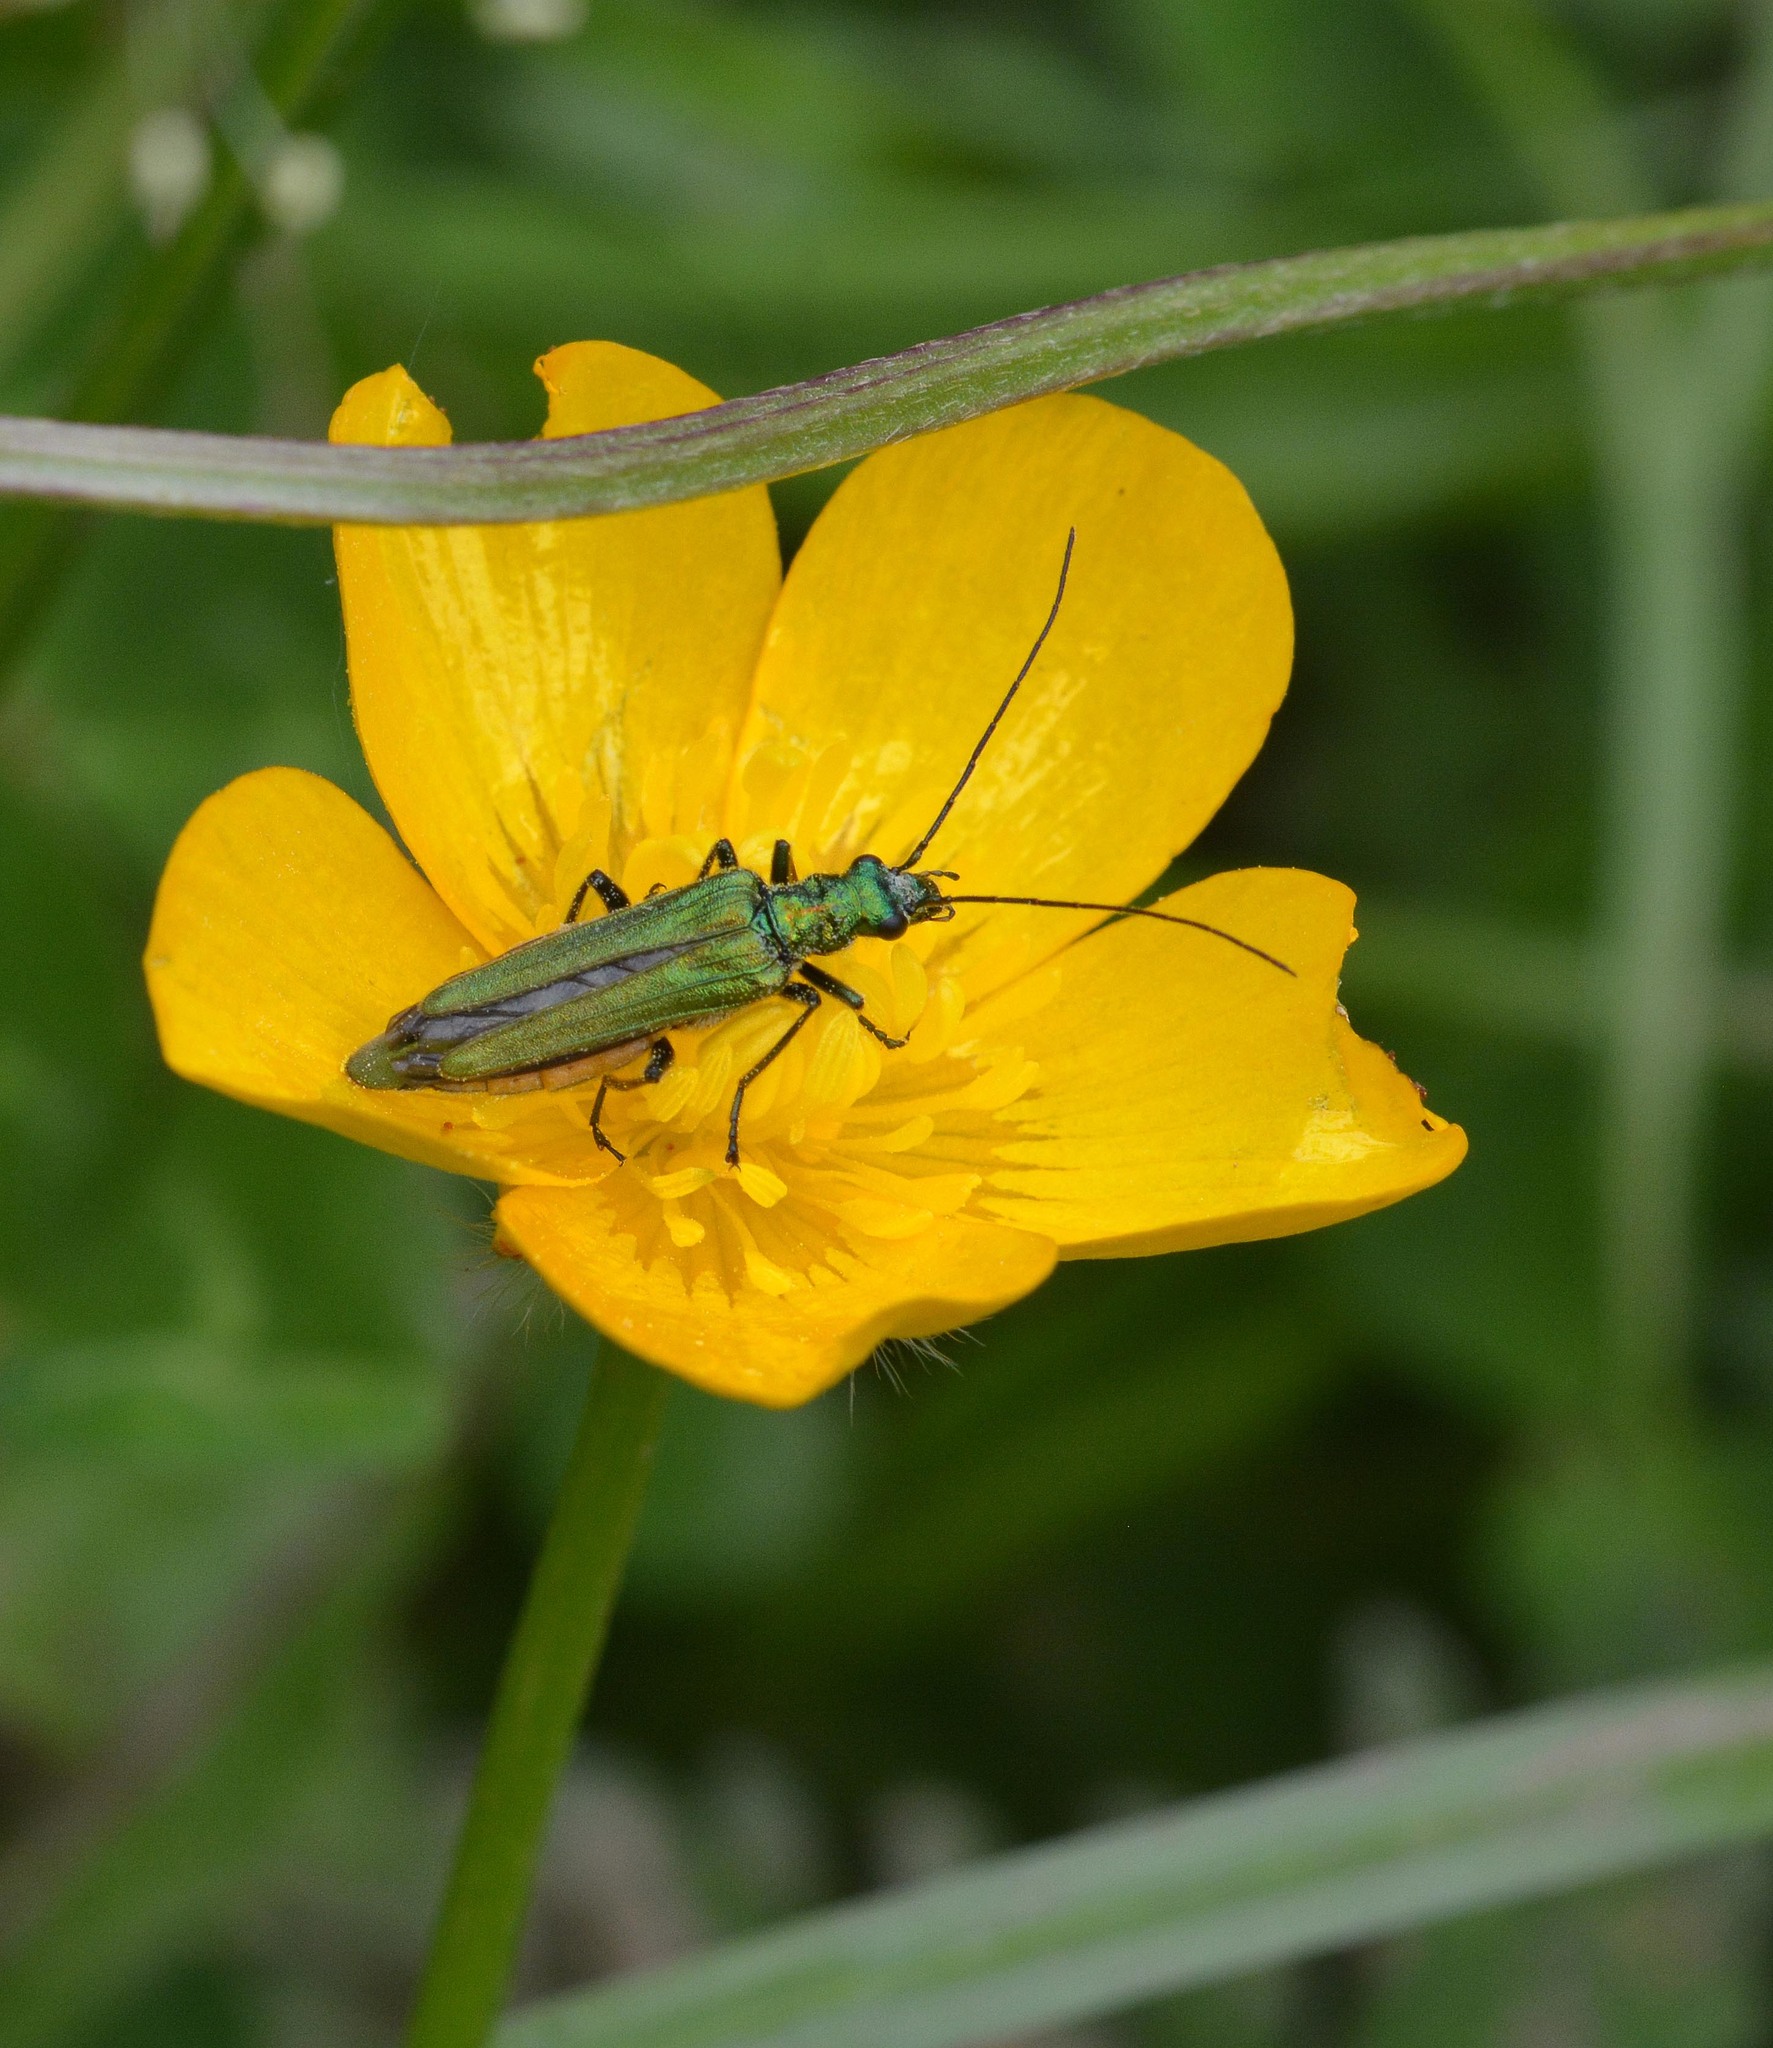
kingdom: Animalia
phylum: Arthropoda
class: Insecta
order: Coleoptera
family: Oedemeridae
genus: Oedemera
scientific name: Oedemera nobilis
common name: Swollen-thighed beetle
